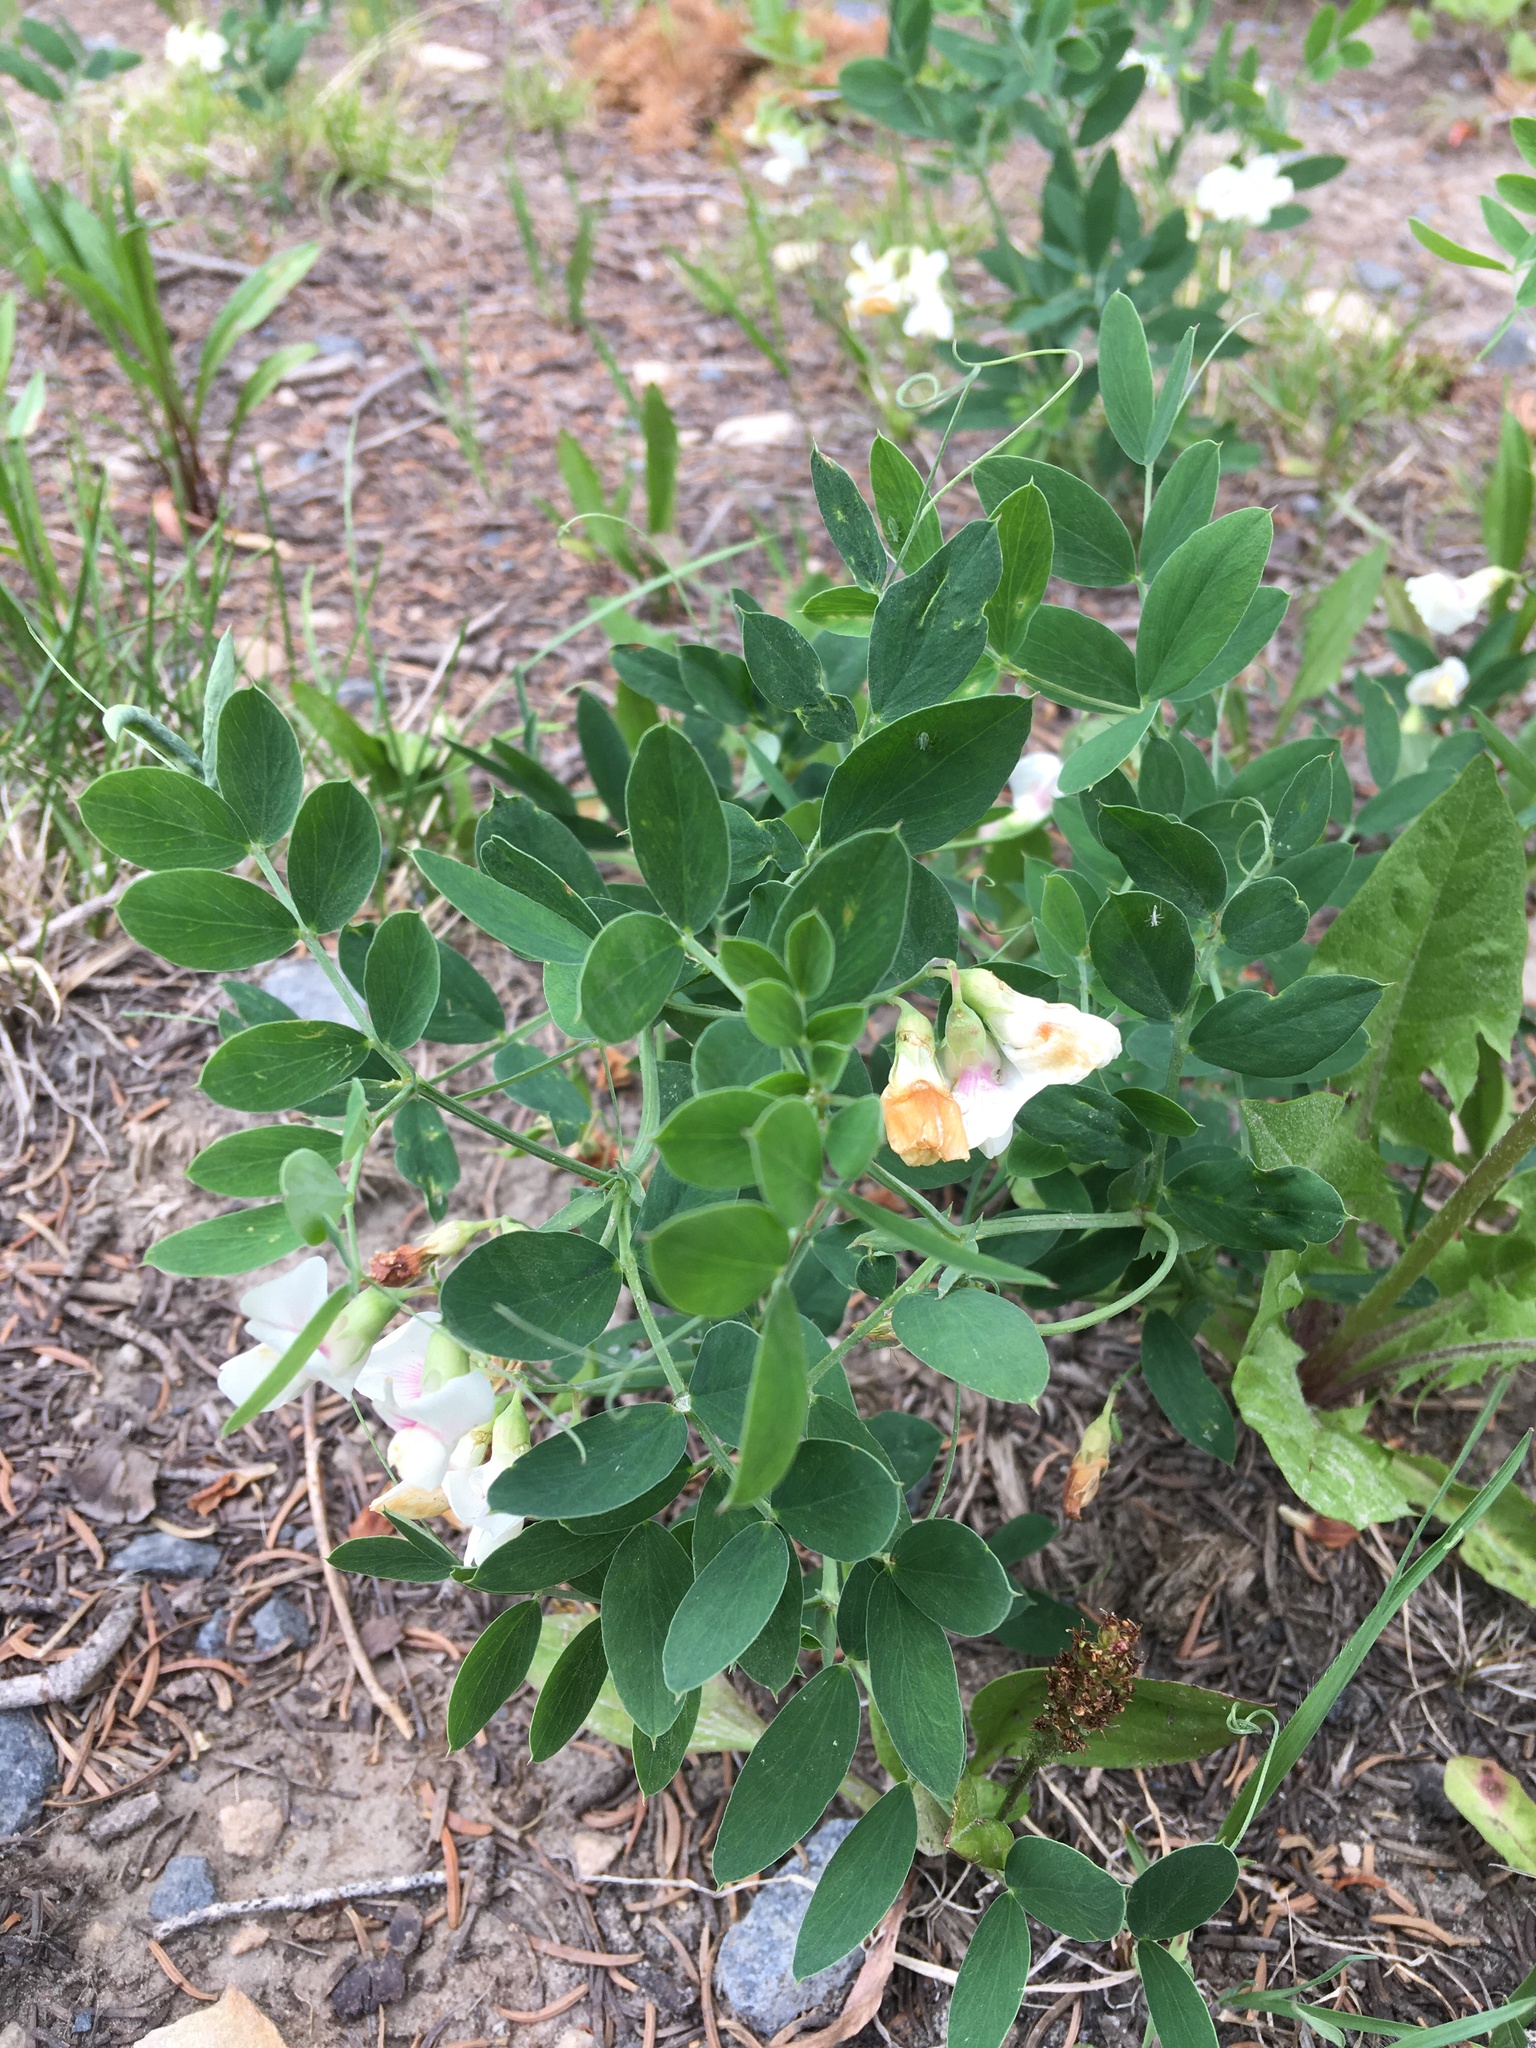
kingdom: Plantae
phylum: Tracheophyta
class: Magnoliopsida
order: Fabales
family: Fabaceae
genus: Lathyrus
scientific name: Lathyrus lanszwertii
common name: Lanszwert's vetchling
